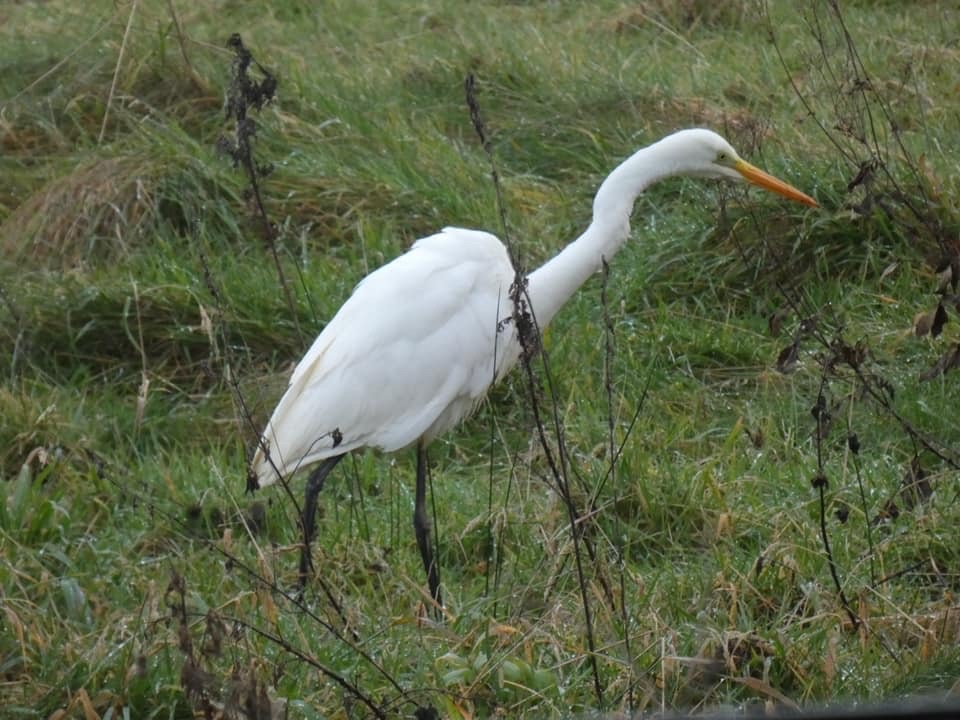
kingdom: Animalia
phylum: Chordata
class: Aves
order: Pelecaniformes
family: Ardeidae
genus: Ardea
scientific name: Ardea alba
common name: Great egret
